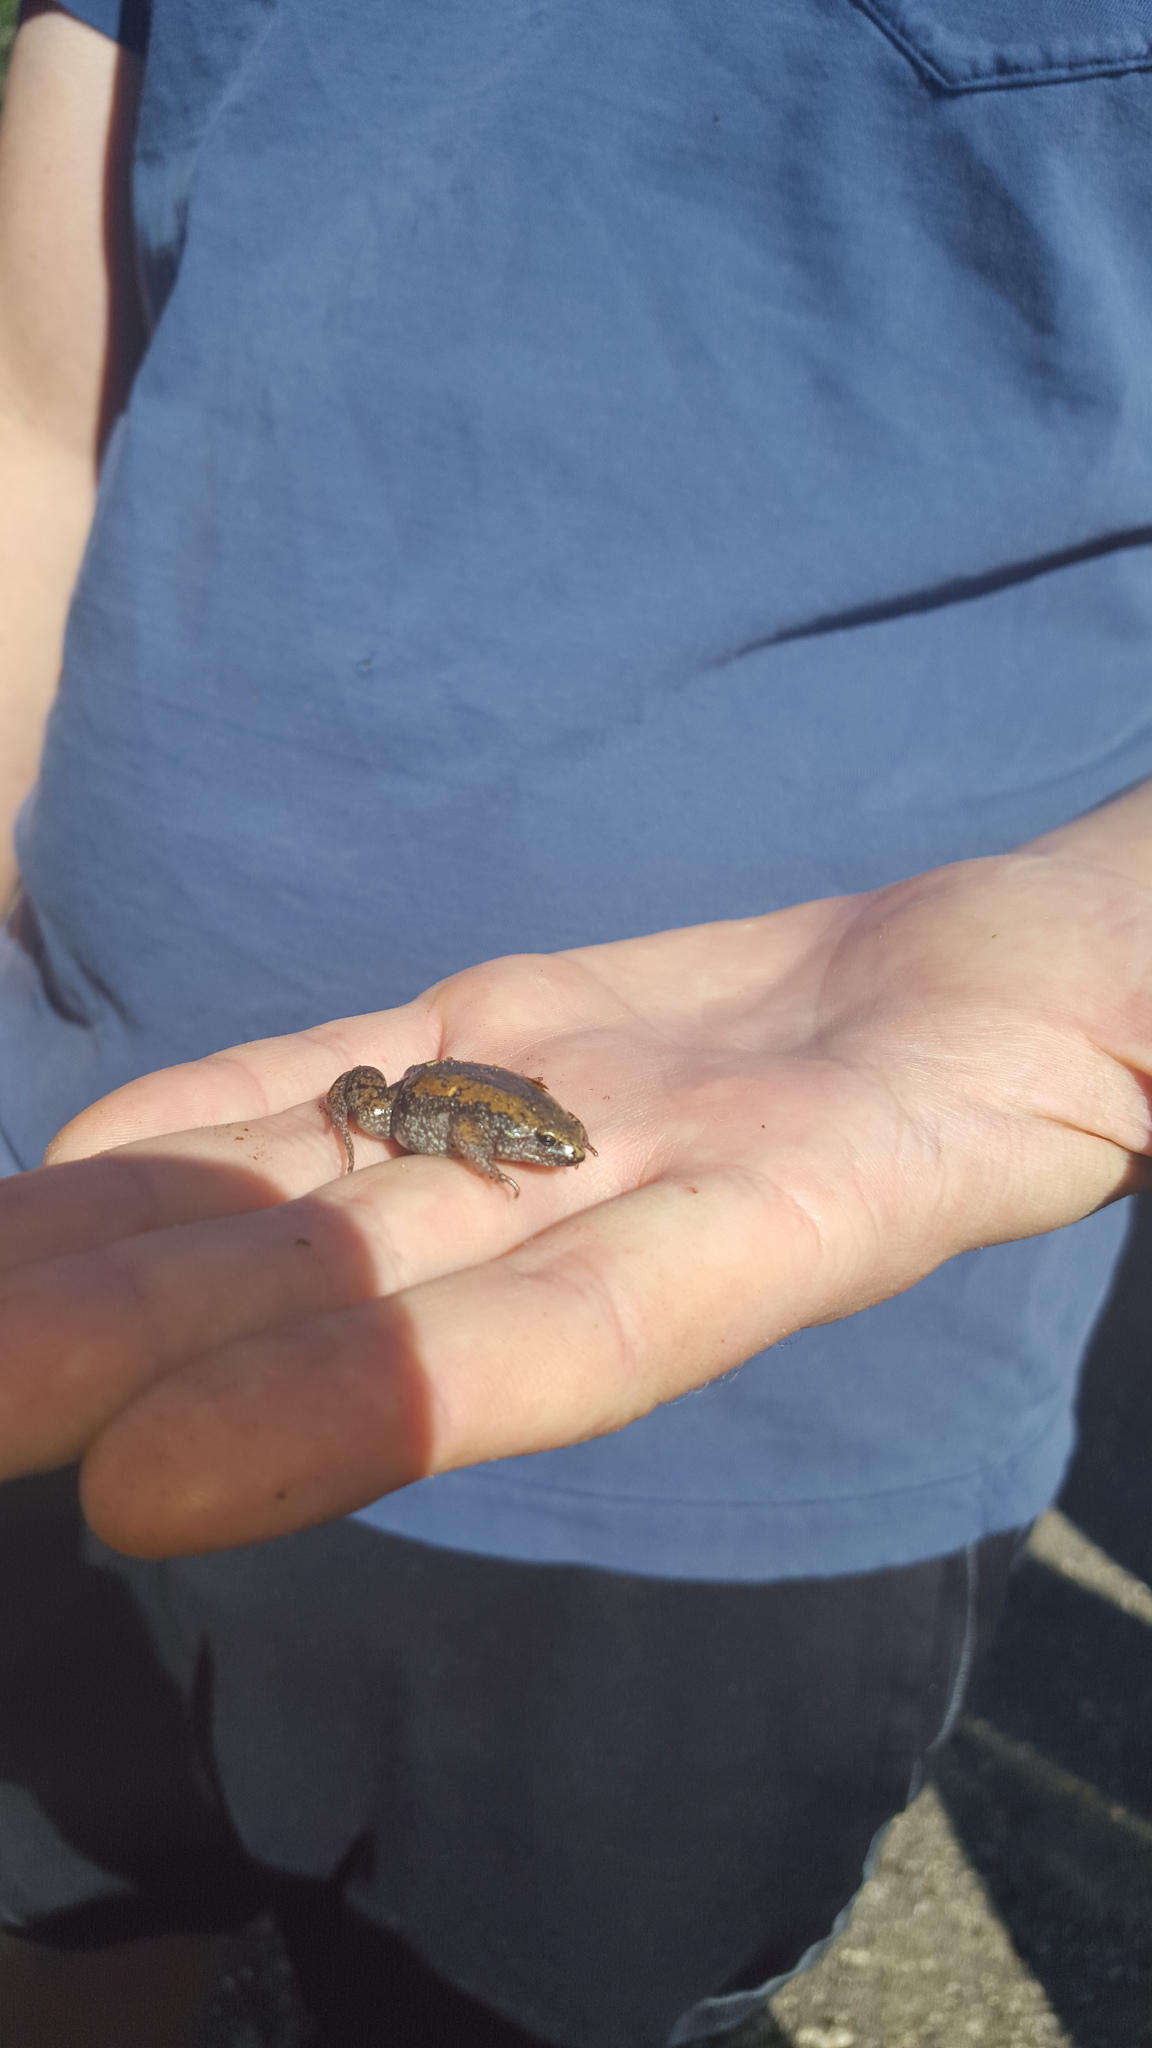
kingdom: Animalia
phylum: Chordata
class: Amphibia
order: Anura
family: Microhylidae
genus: Gastrophryne
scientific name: Gastrophryne carolinensis
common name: Eastern narrowmouth toad
